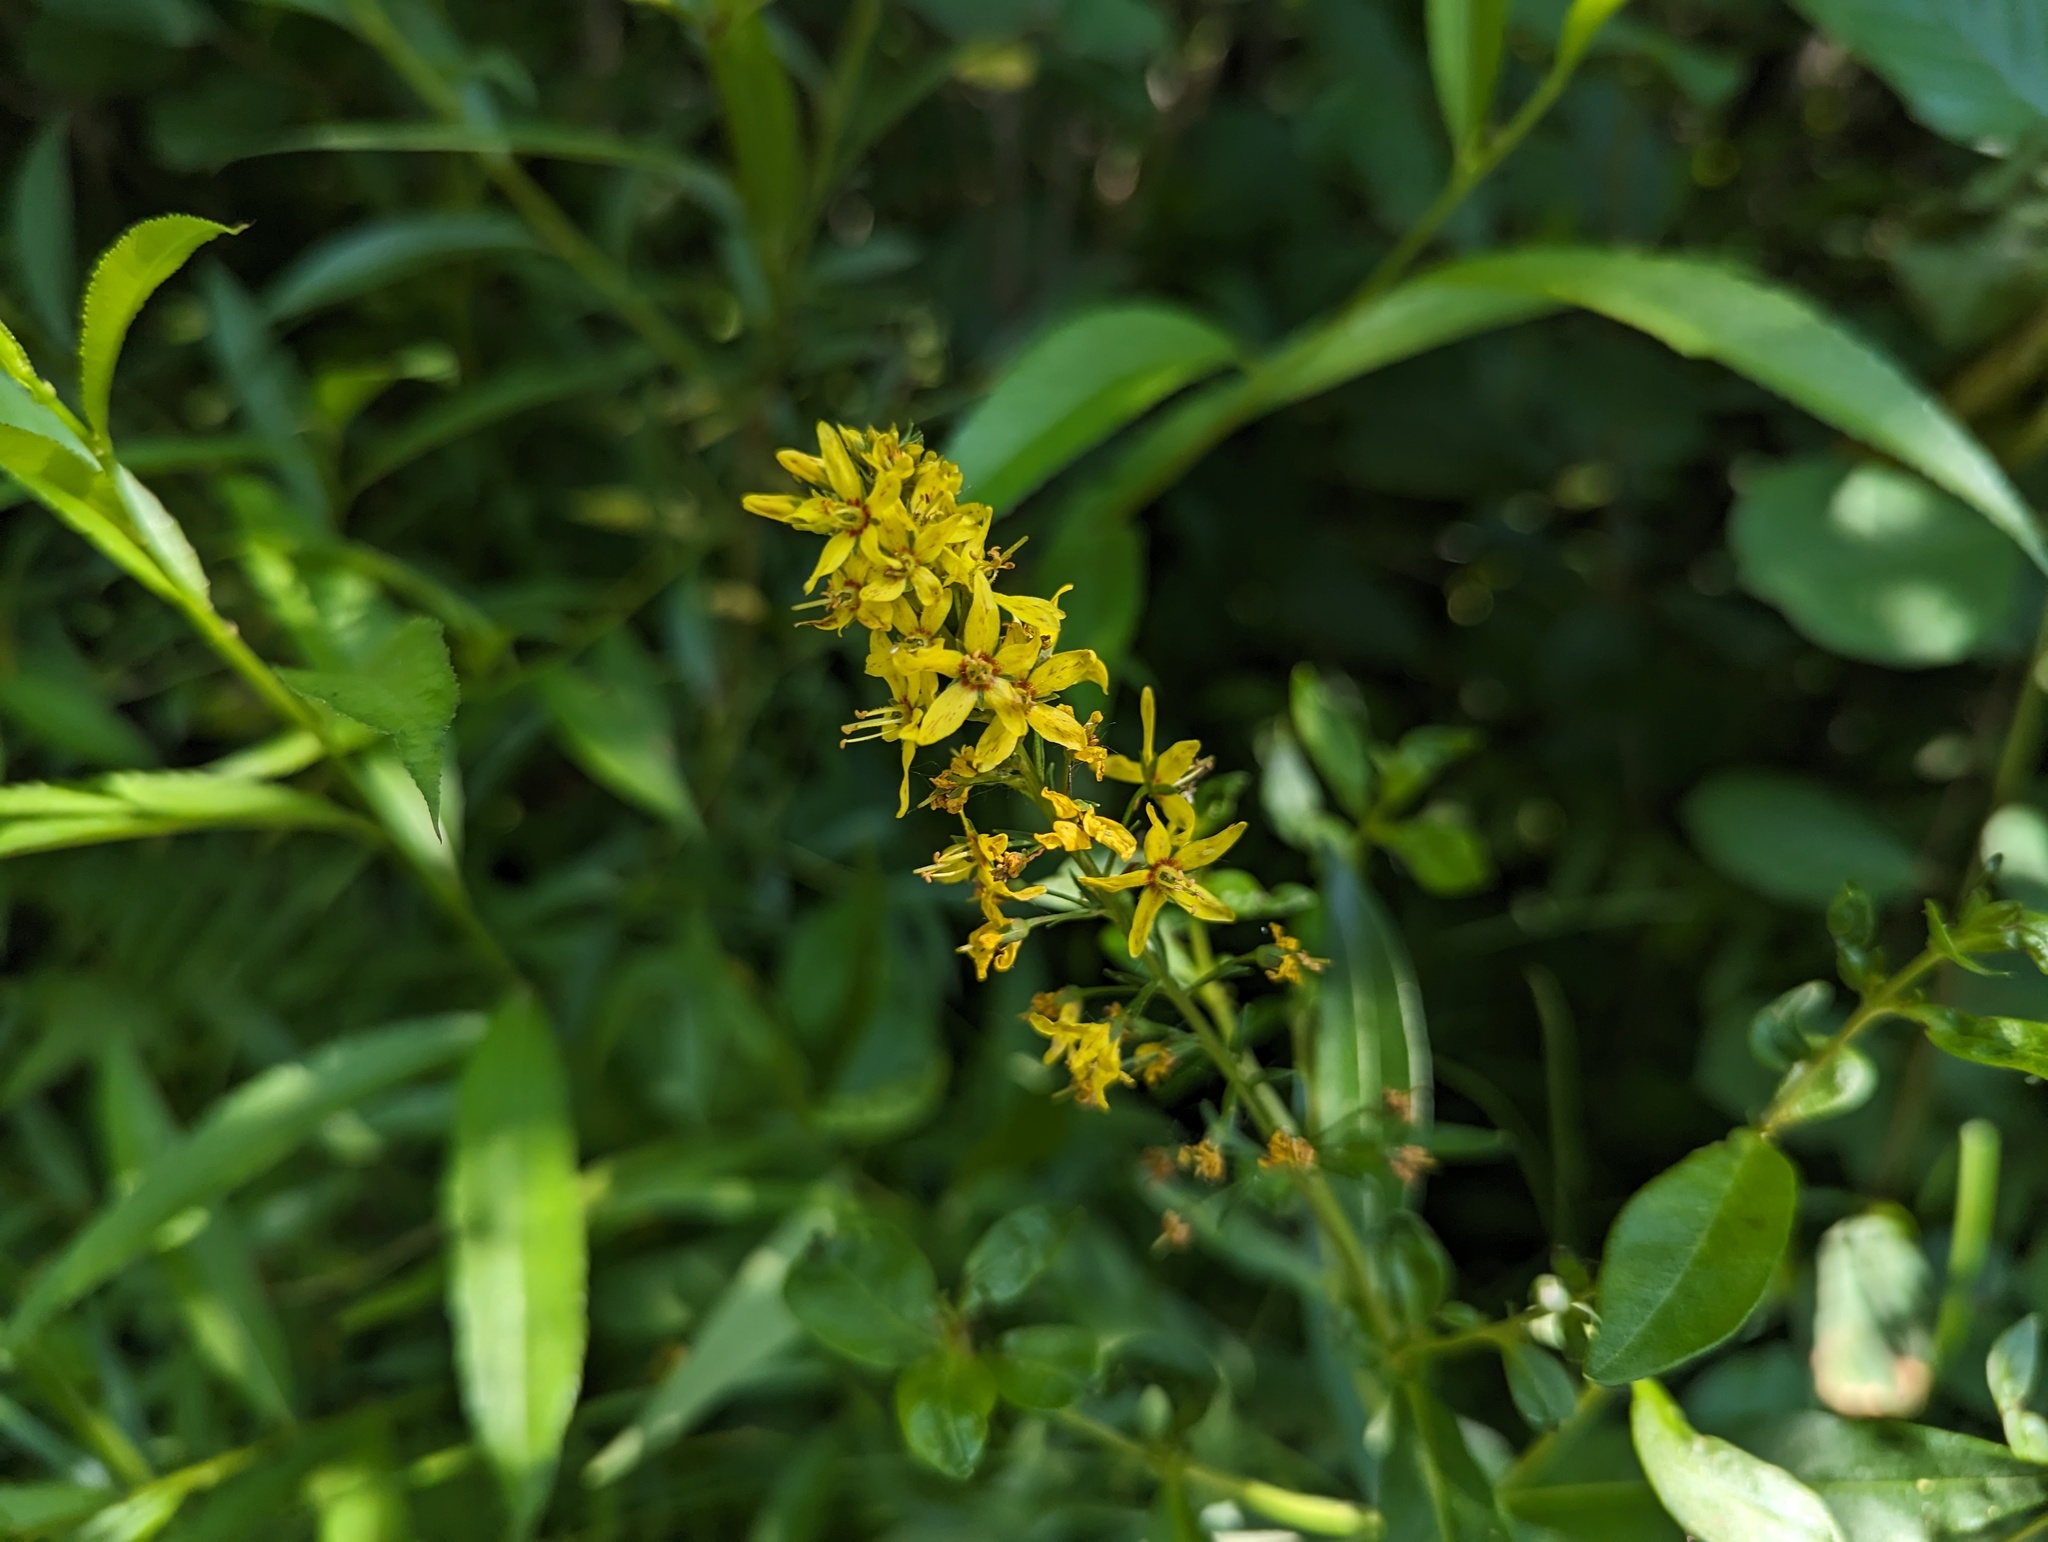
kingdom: Plantae
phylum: Tracheophyta
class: Magnoliopsida
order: Ericales
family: Primulaceae
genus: Lysimachia
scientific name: Lysimachia terrestris
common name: Lake loosestrife
